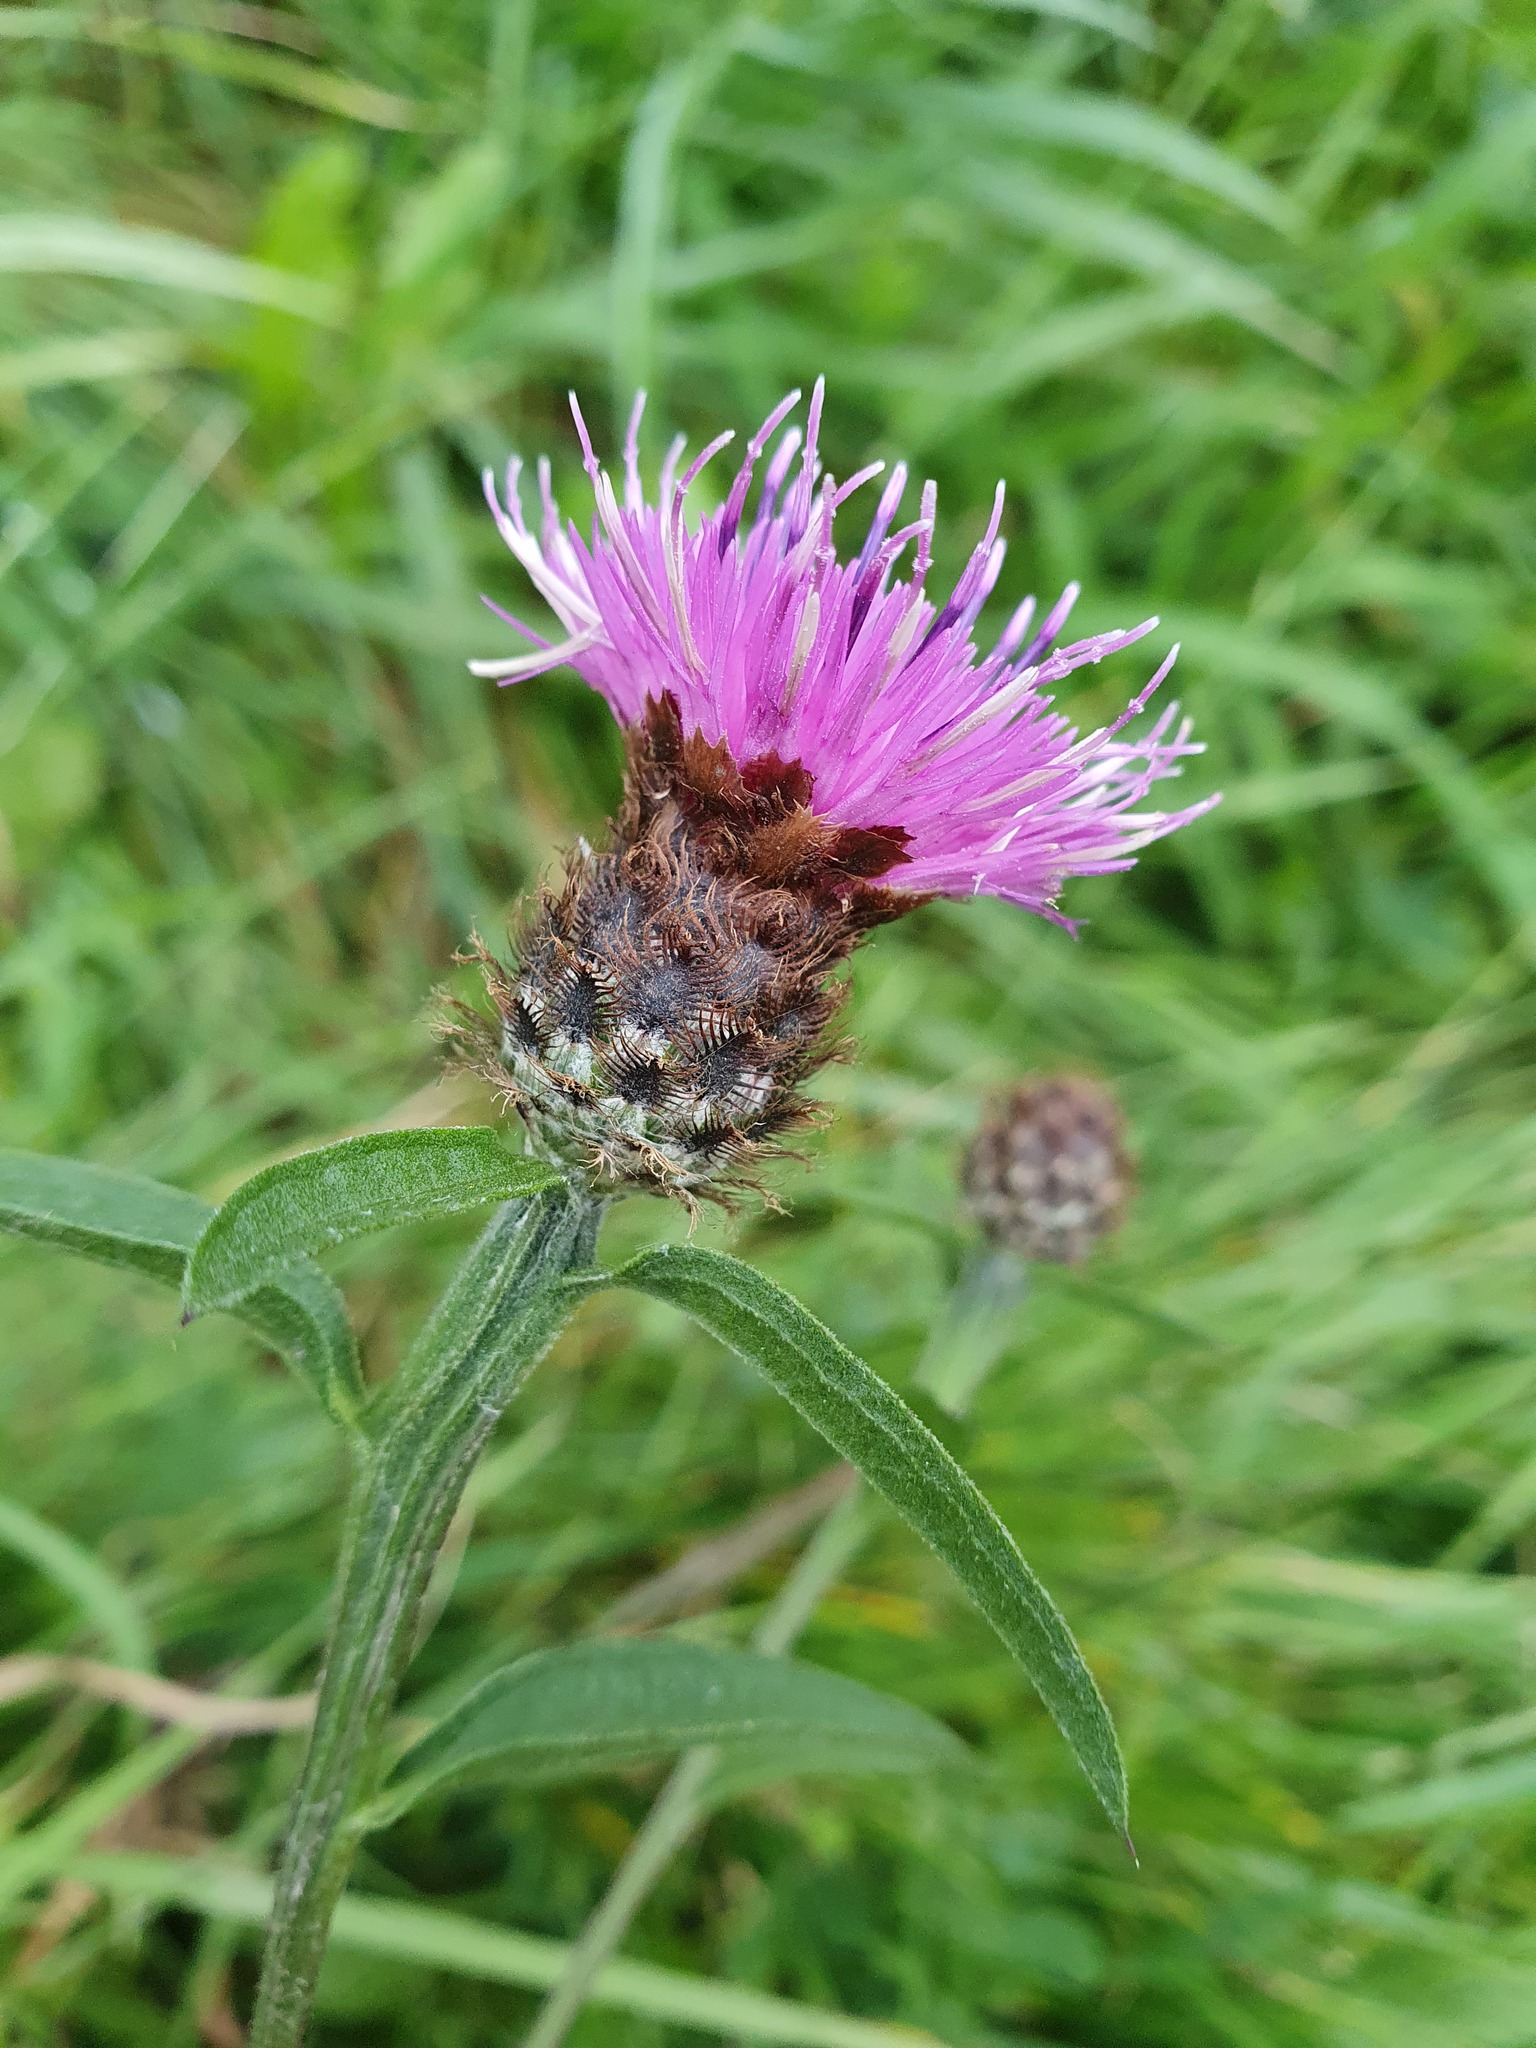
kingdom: Plantae
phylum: Tracheophyta
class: Magnoliopsida
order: Asterales
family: Asteraceae
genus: Centaurea
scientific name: Centaurea nigra
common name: Lesser knapweed
